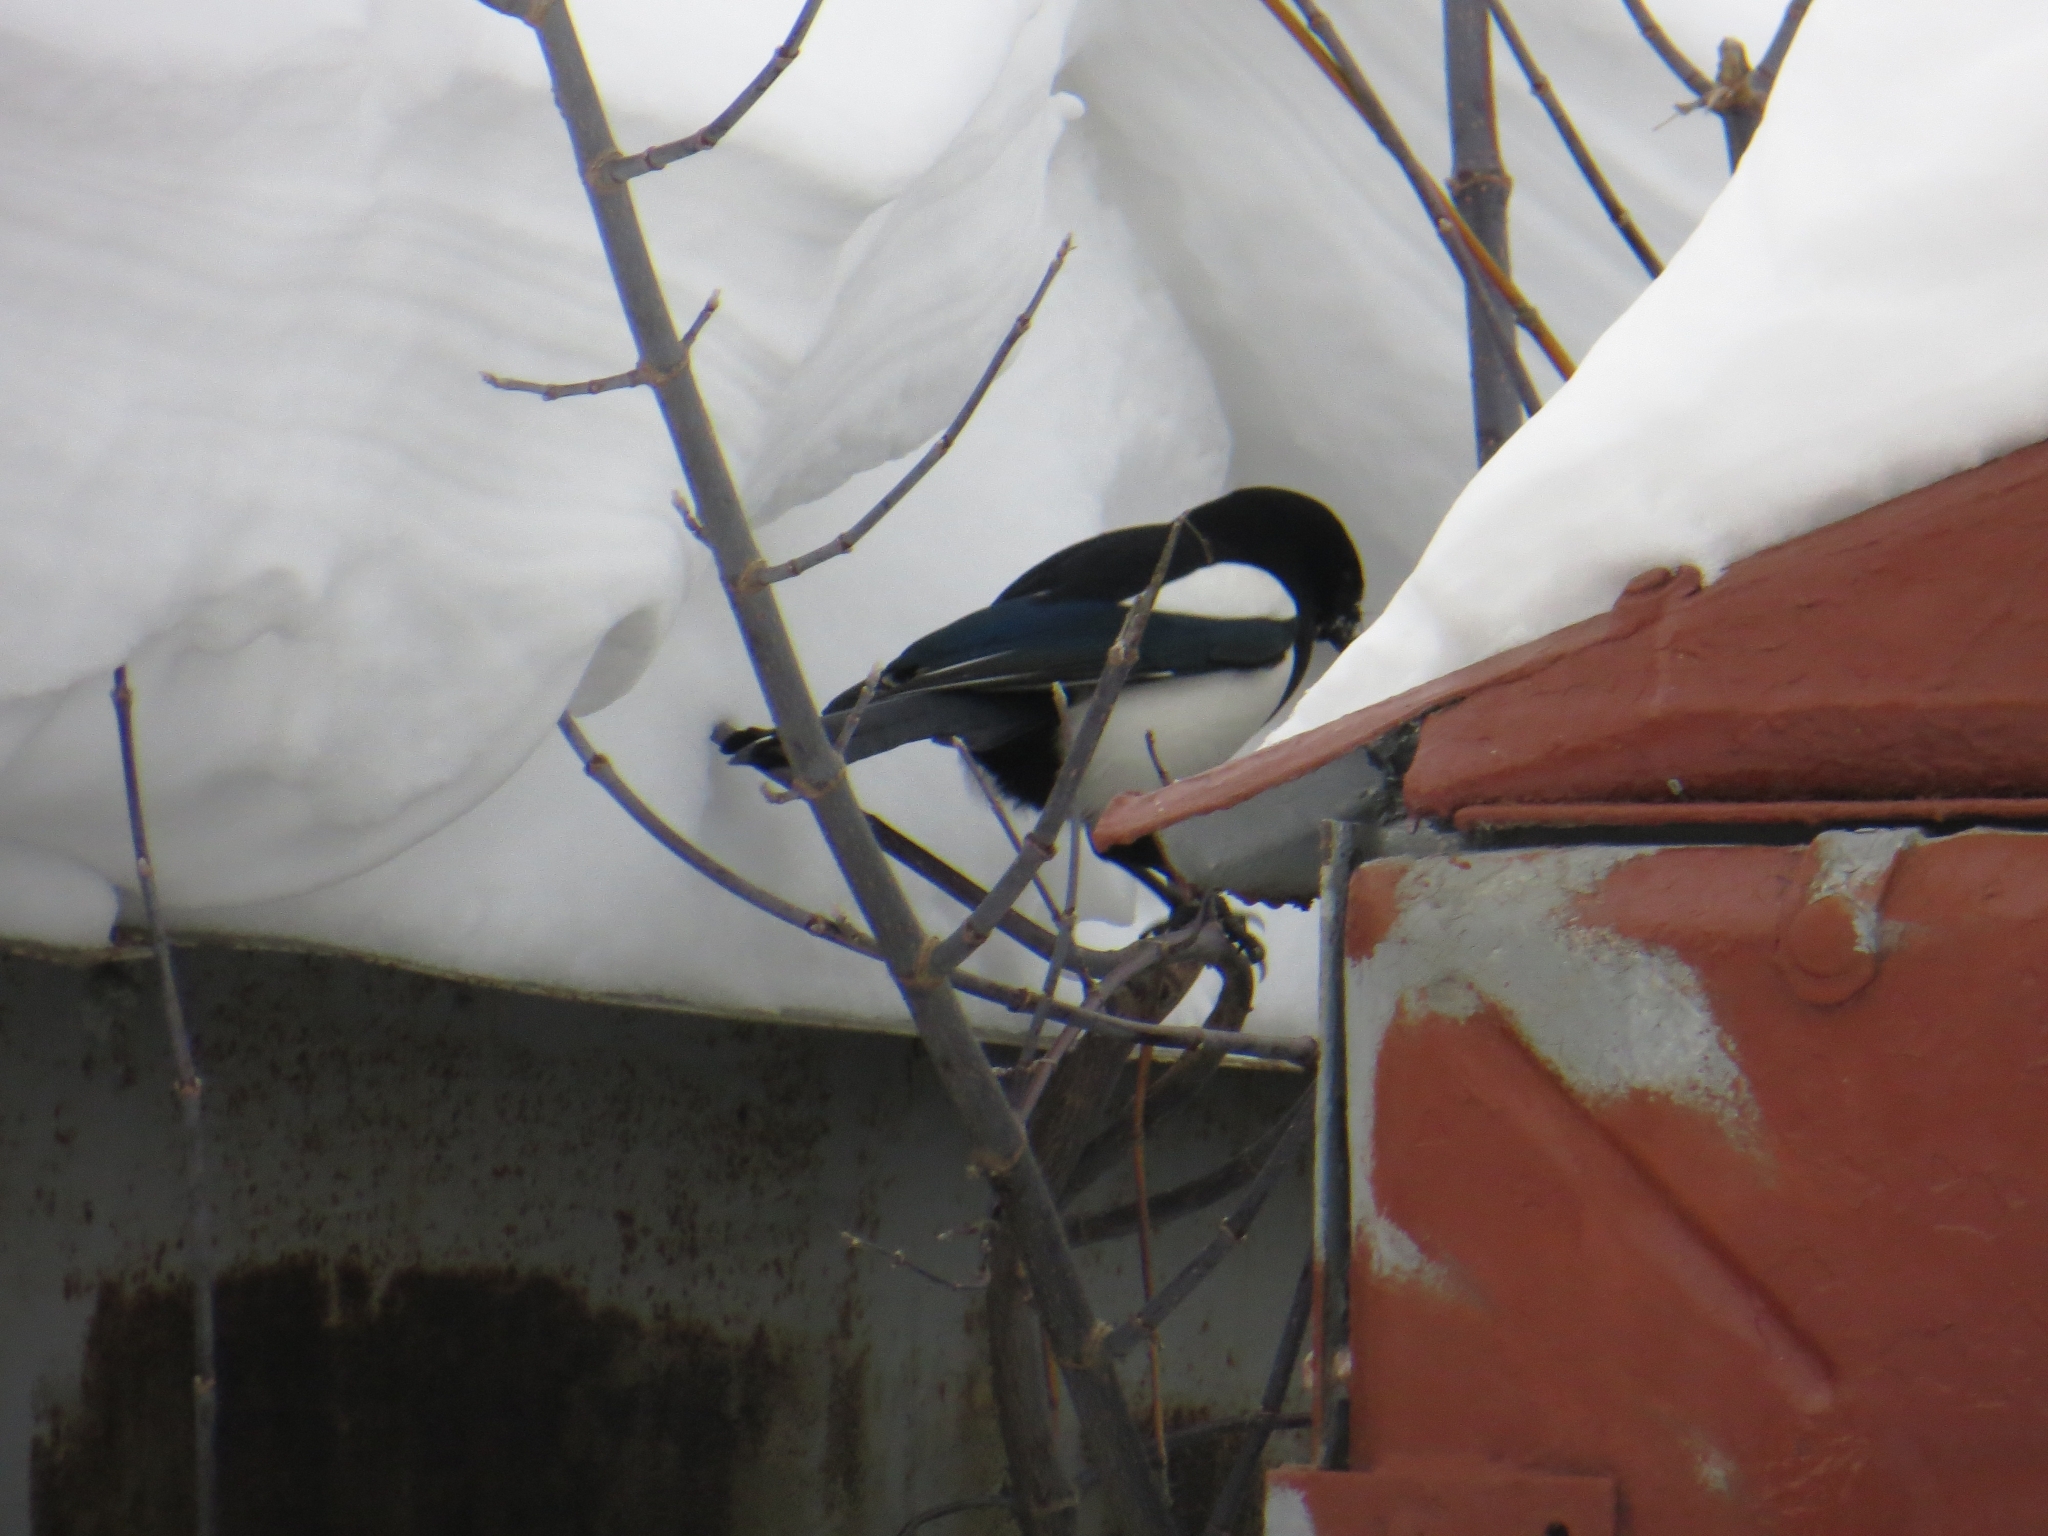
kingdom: Animalia
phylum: Chordata
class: Aves
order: Passeriformes
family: Corvidae
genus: Pica
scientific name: Pica pica
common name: Eurasian magpie
